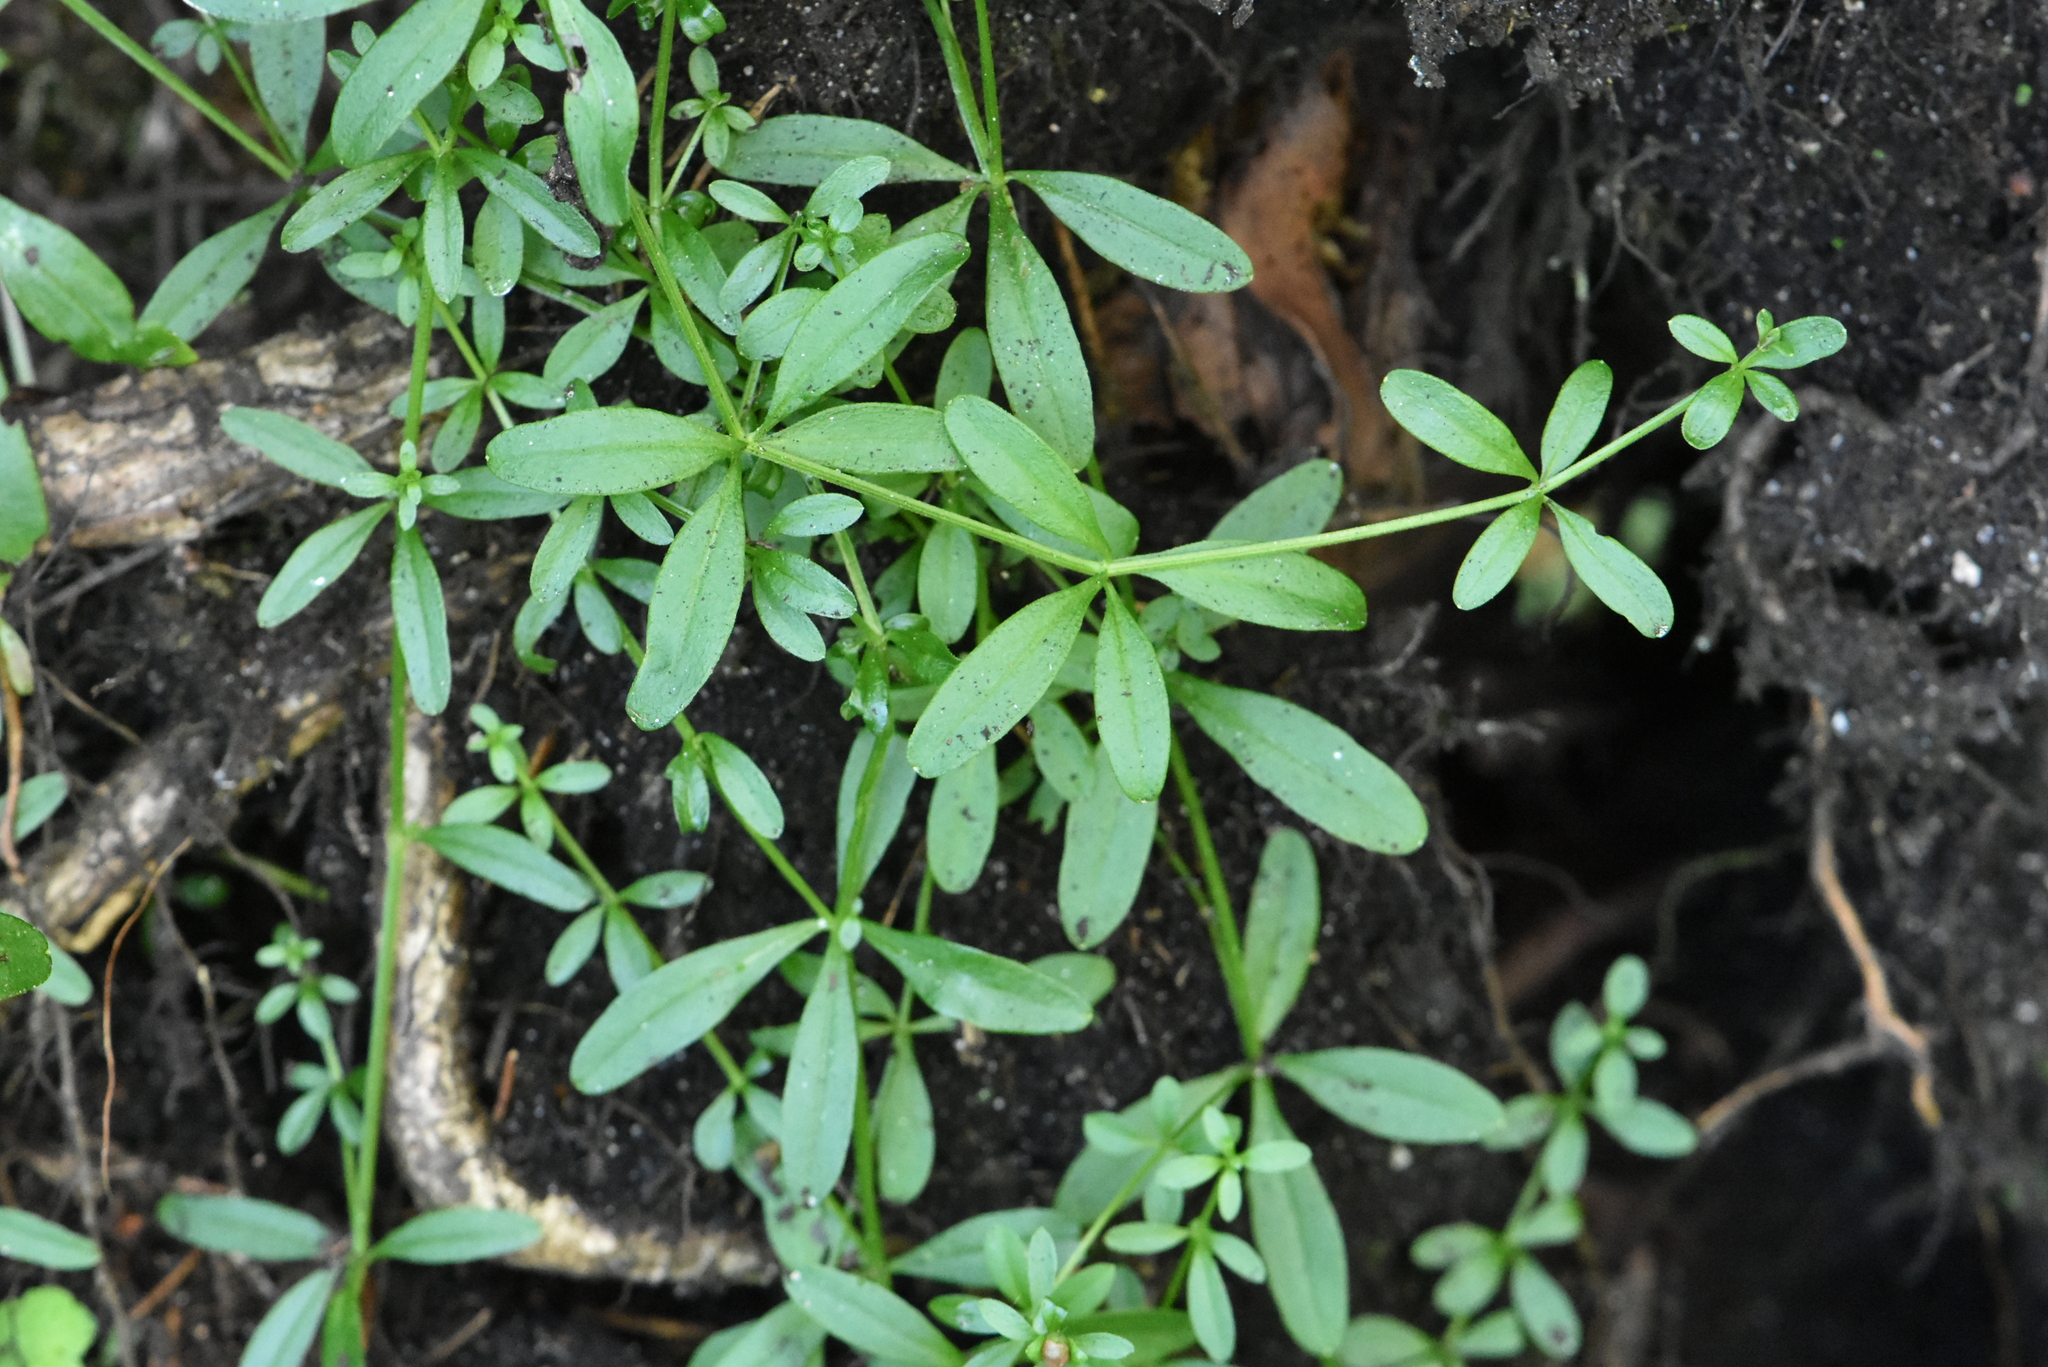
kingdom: Plantae
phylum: Tracheophyta
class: Magnoliopsida
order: Gentianales
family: Rubiaceae
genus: Galium
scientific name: Galium palustre
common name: Common marsh-bedstraw
